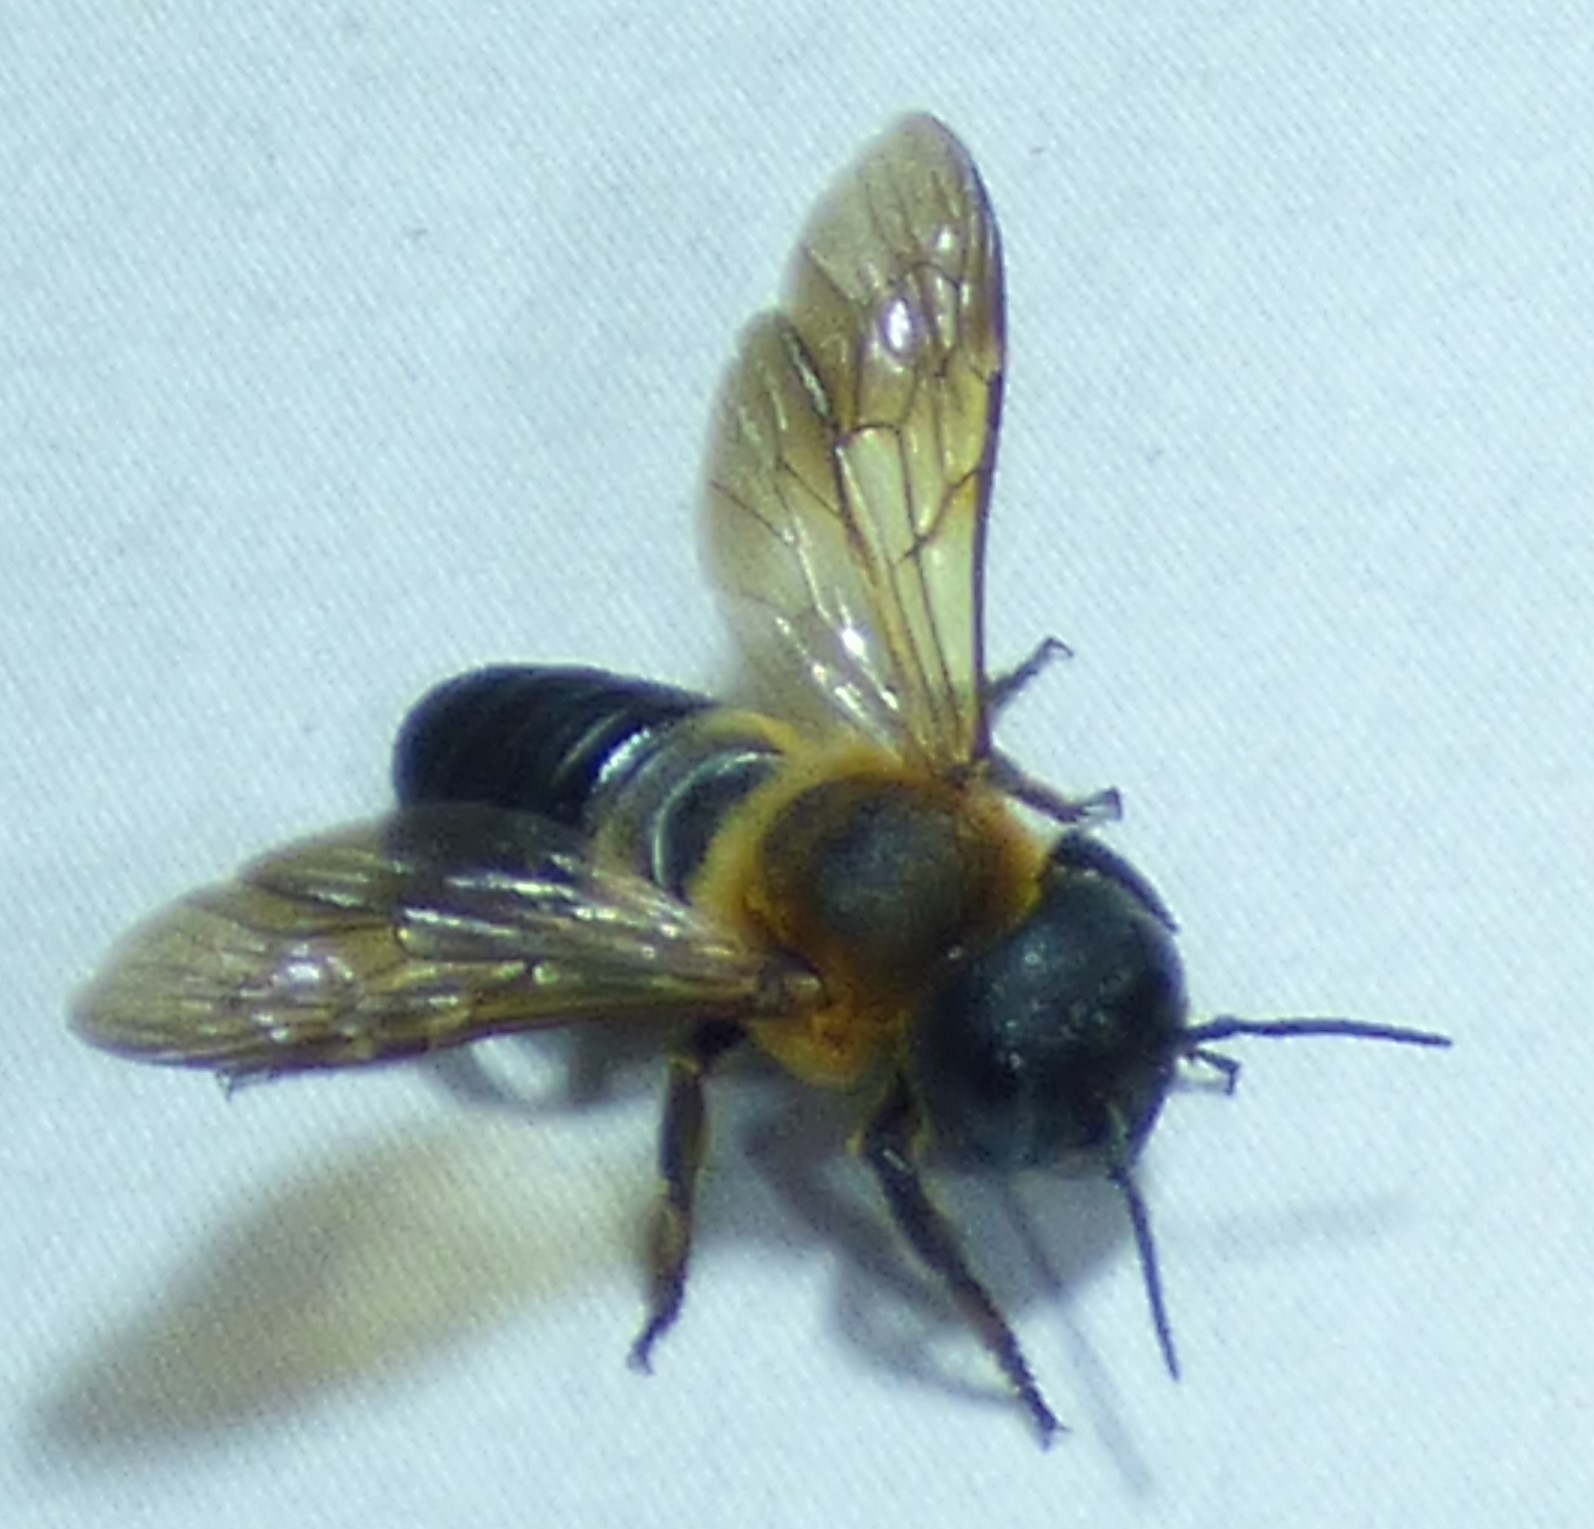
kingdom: Animalia
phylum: Arthropoda
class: Insecta
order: Hymenoptera
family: Megachilidae
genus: Megachile
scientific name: Megachile sculpturalis
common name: Sculptured resin bee
